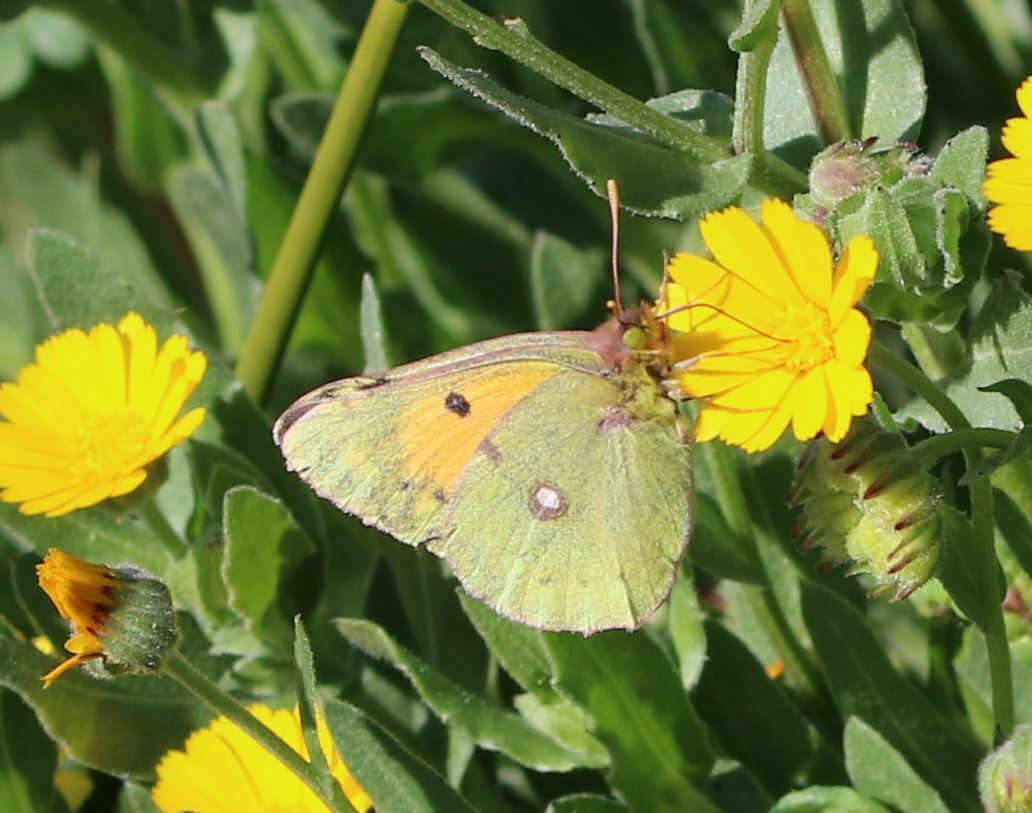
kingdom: Animalia
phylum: Arthropoda
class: Insecta
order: Lepidoptera
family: Pieridae
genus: Colias
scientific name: Colias croceus
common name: Clouded yellow
